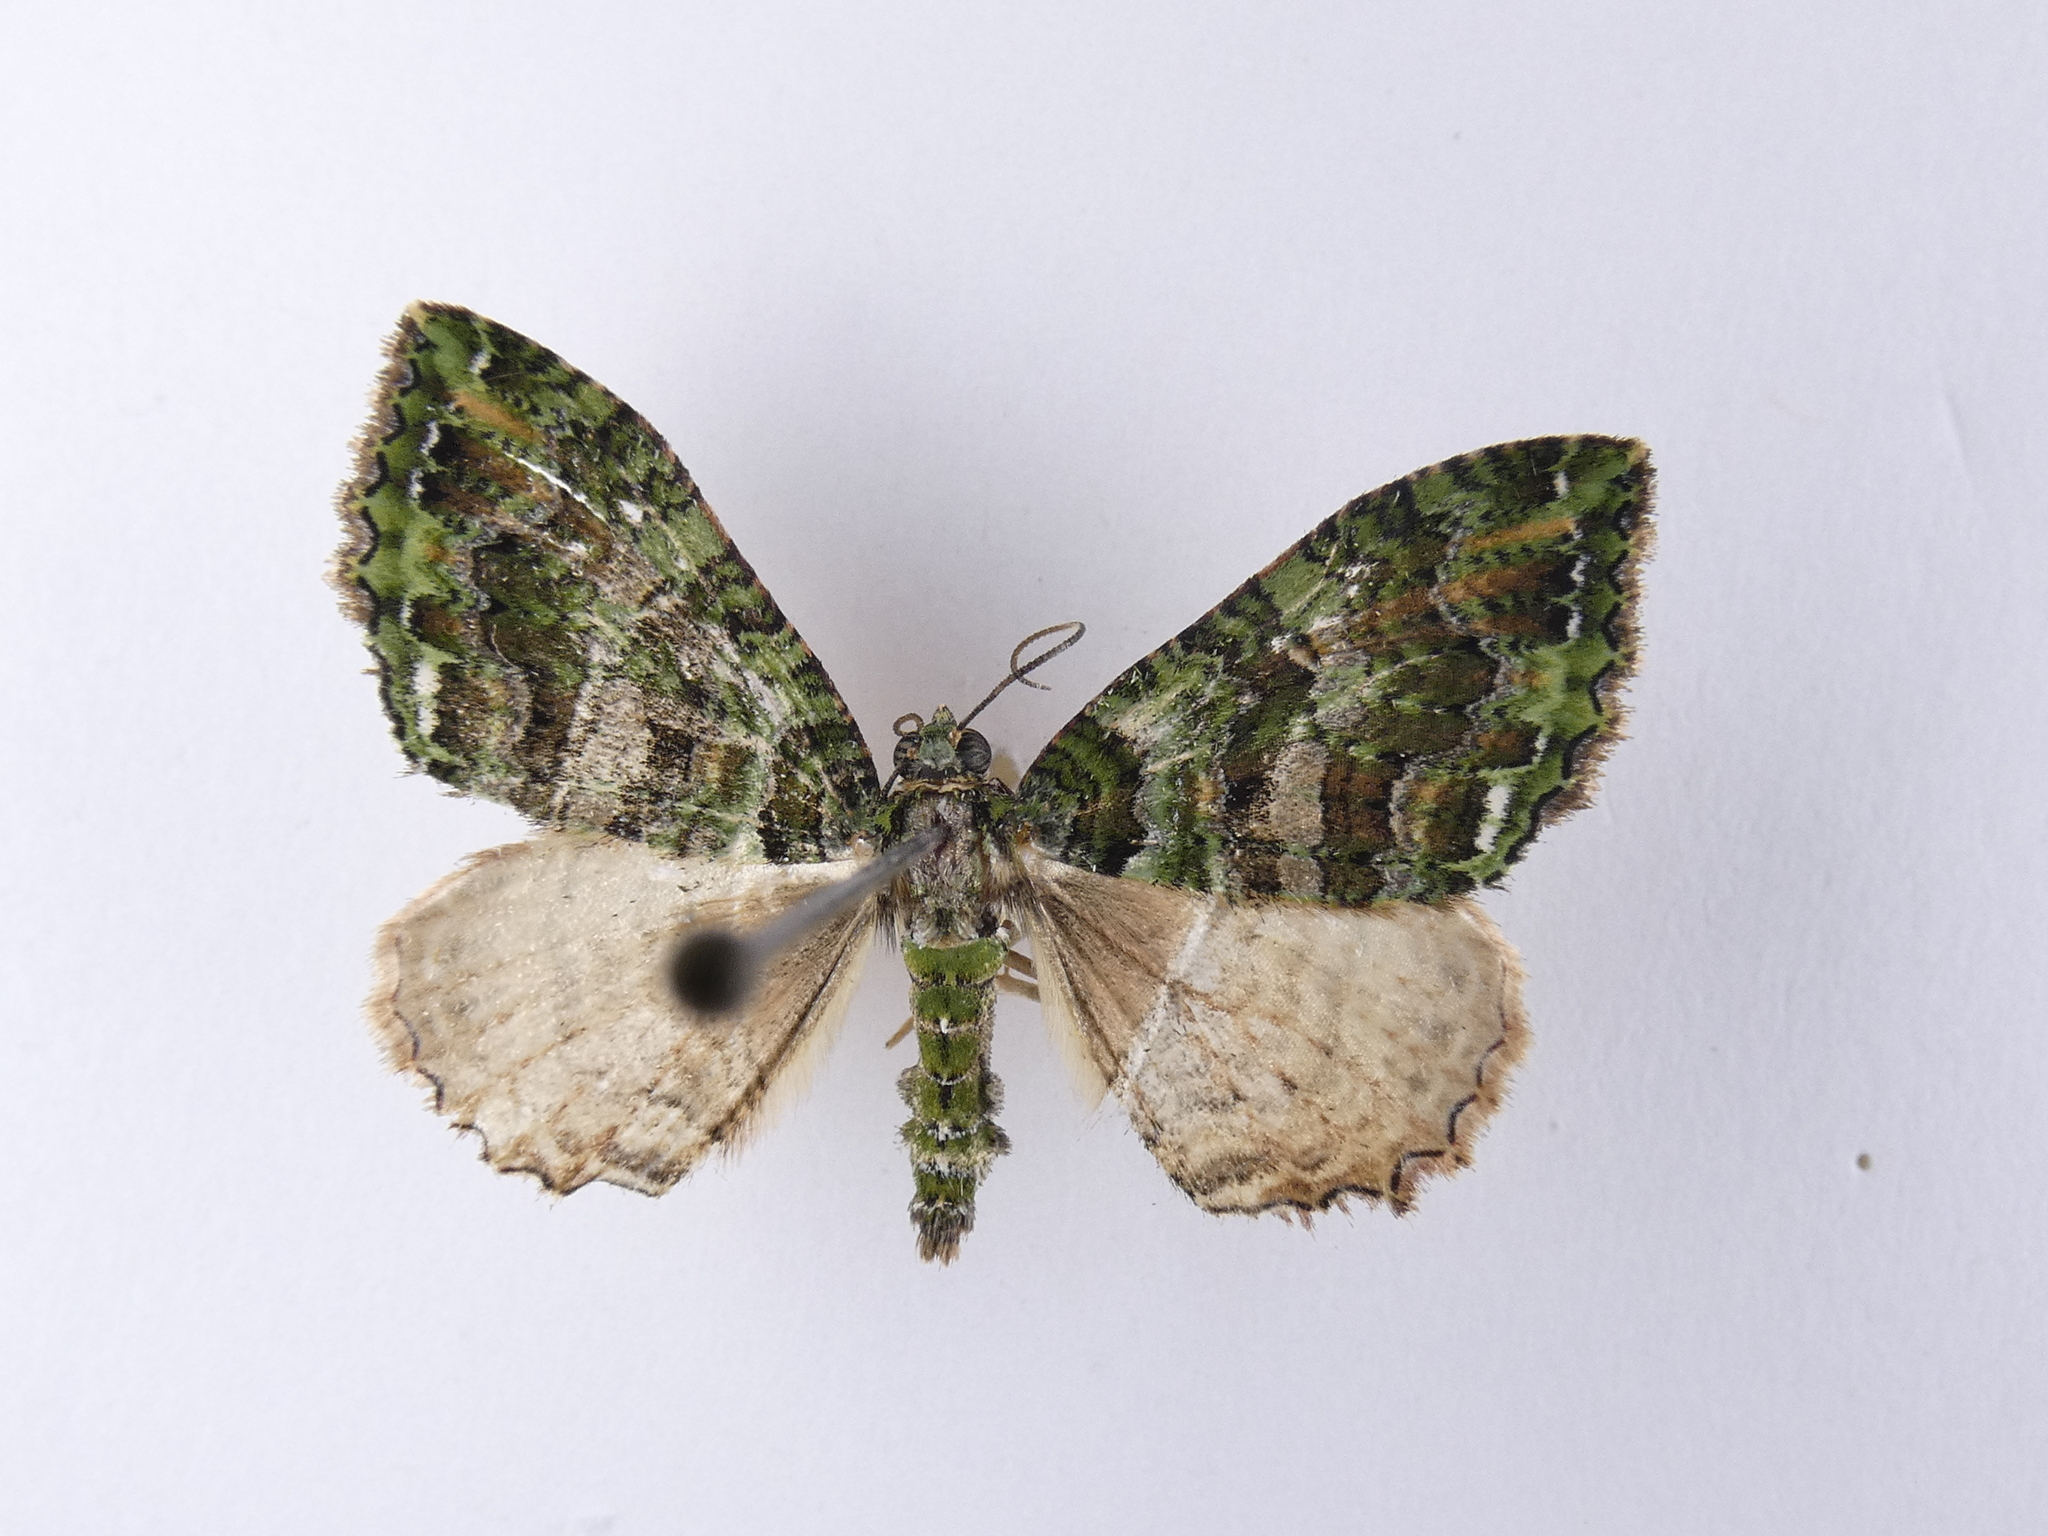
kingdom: Animalia
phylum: Arthropoda
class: Insecta
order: Lepidoptera
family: Geometridae
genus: Austrocidaria
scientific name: Austrocidaria similata
